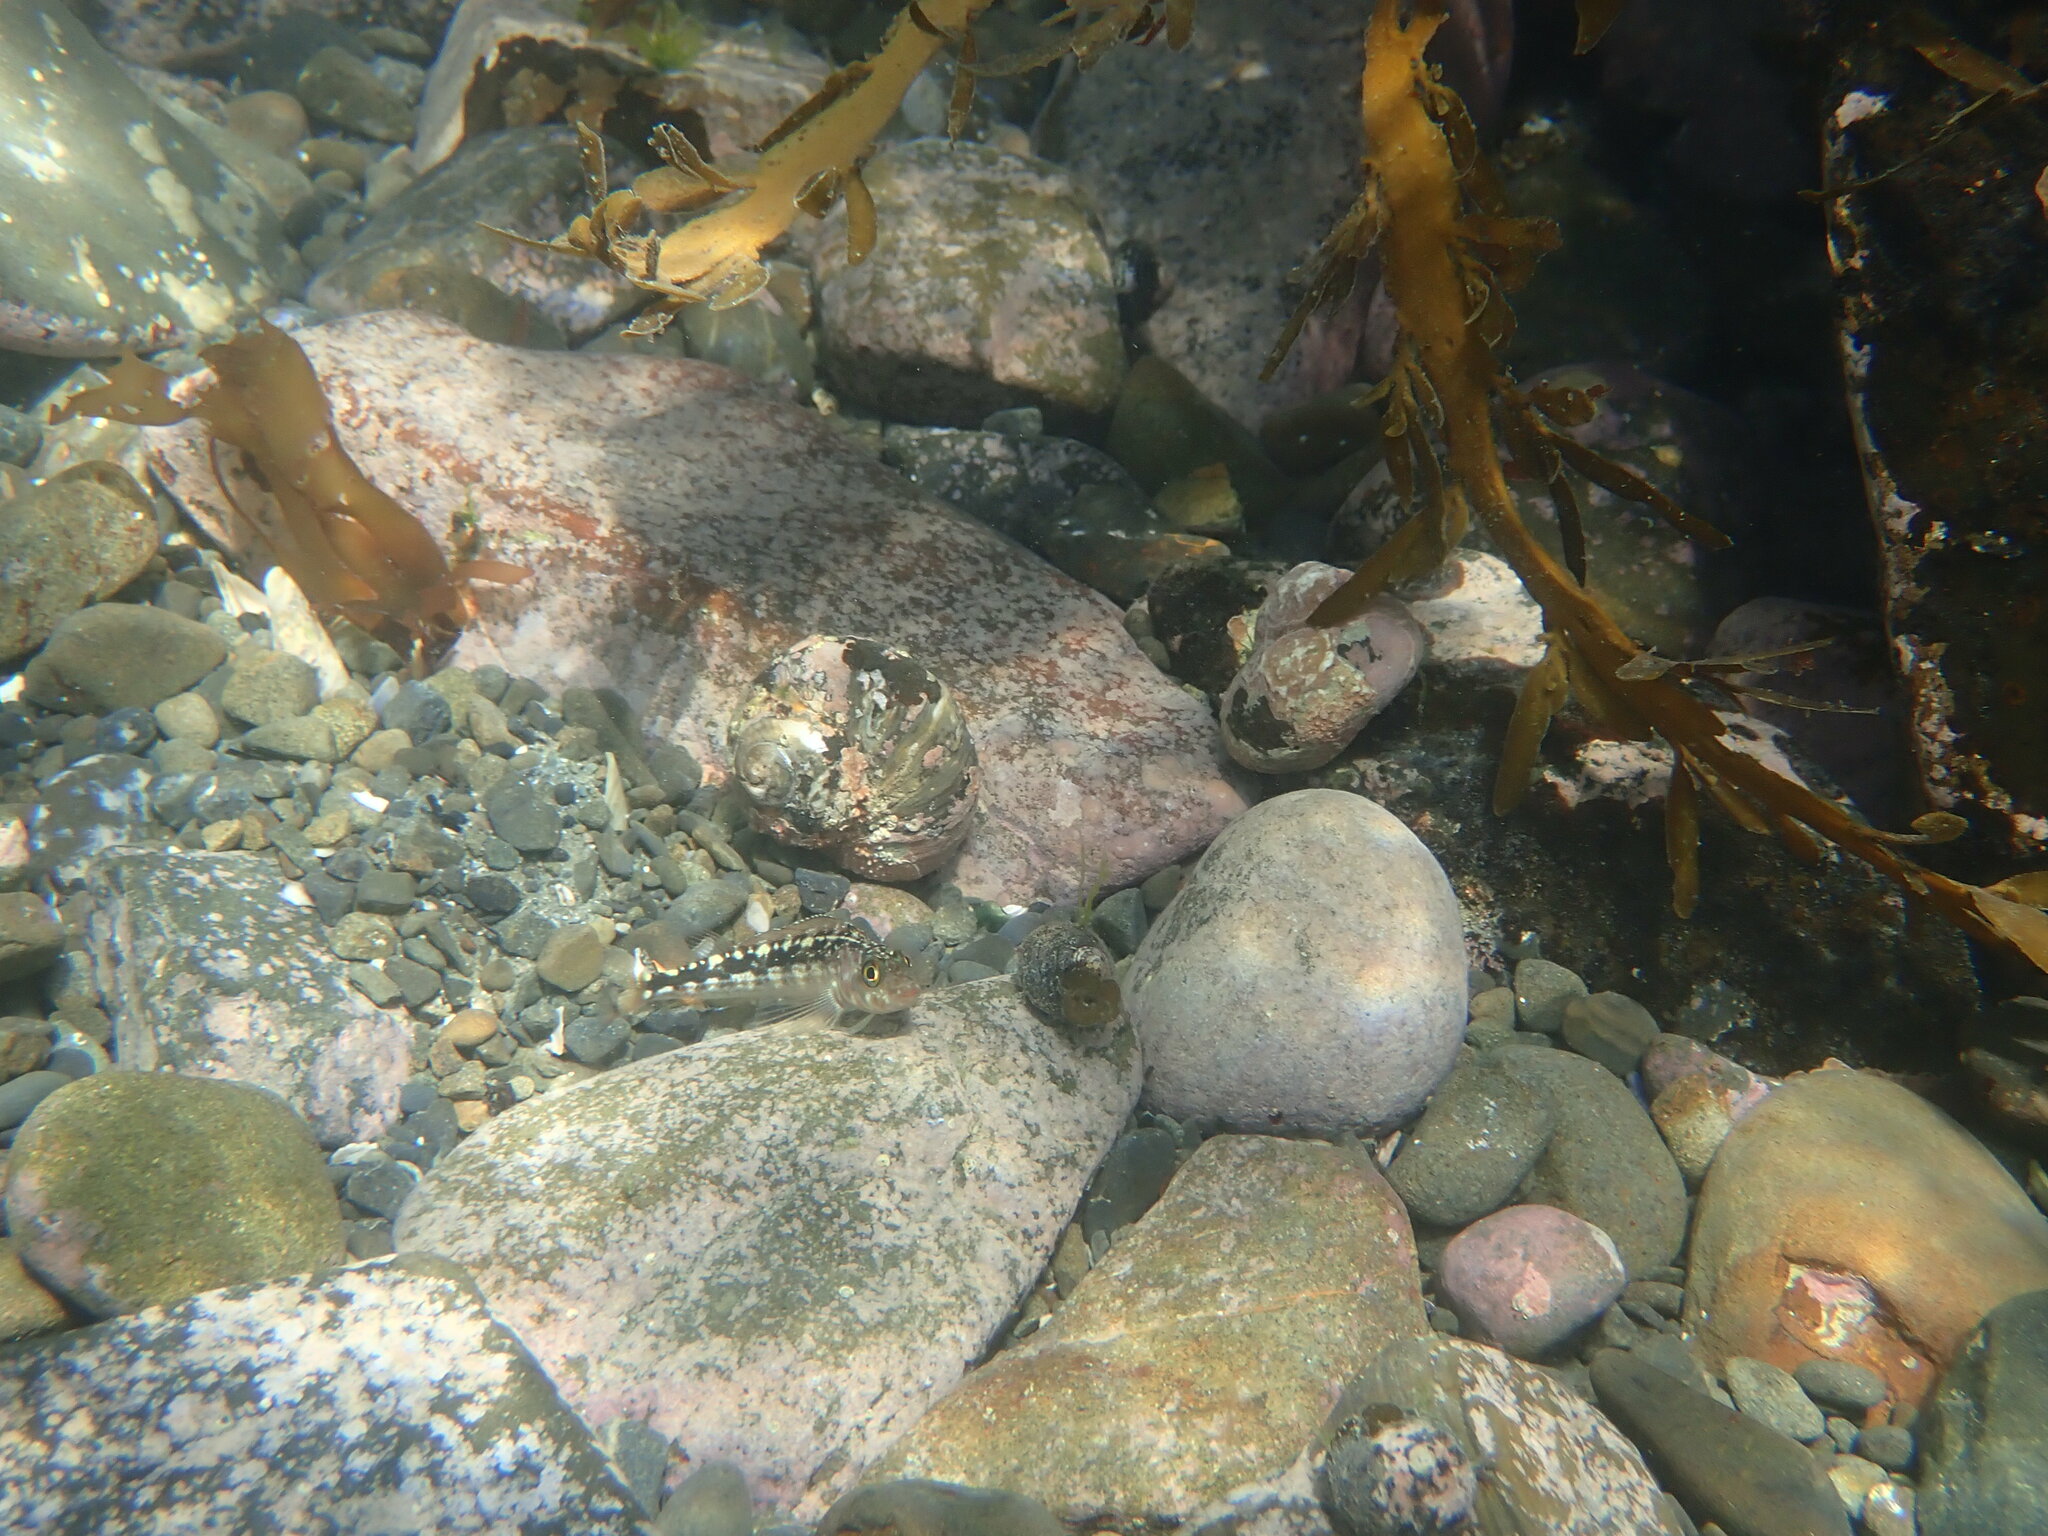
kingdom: Animalia
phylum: Chordata
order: Perciformes
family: Tripterygiidae
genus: Forsterygion
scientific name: Forsterygion varium
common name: Variable triplefin
